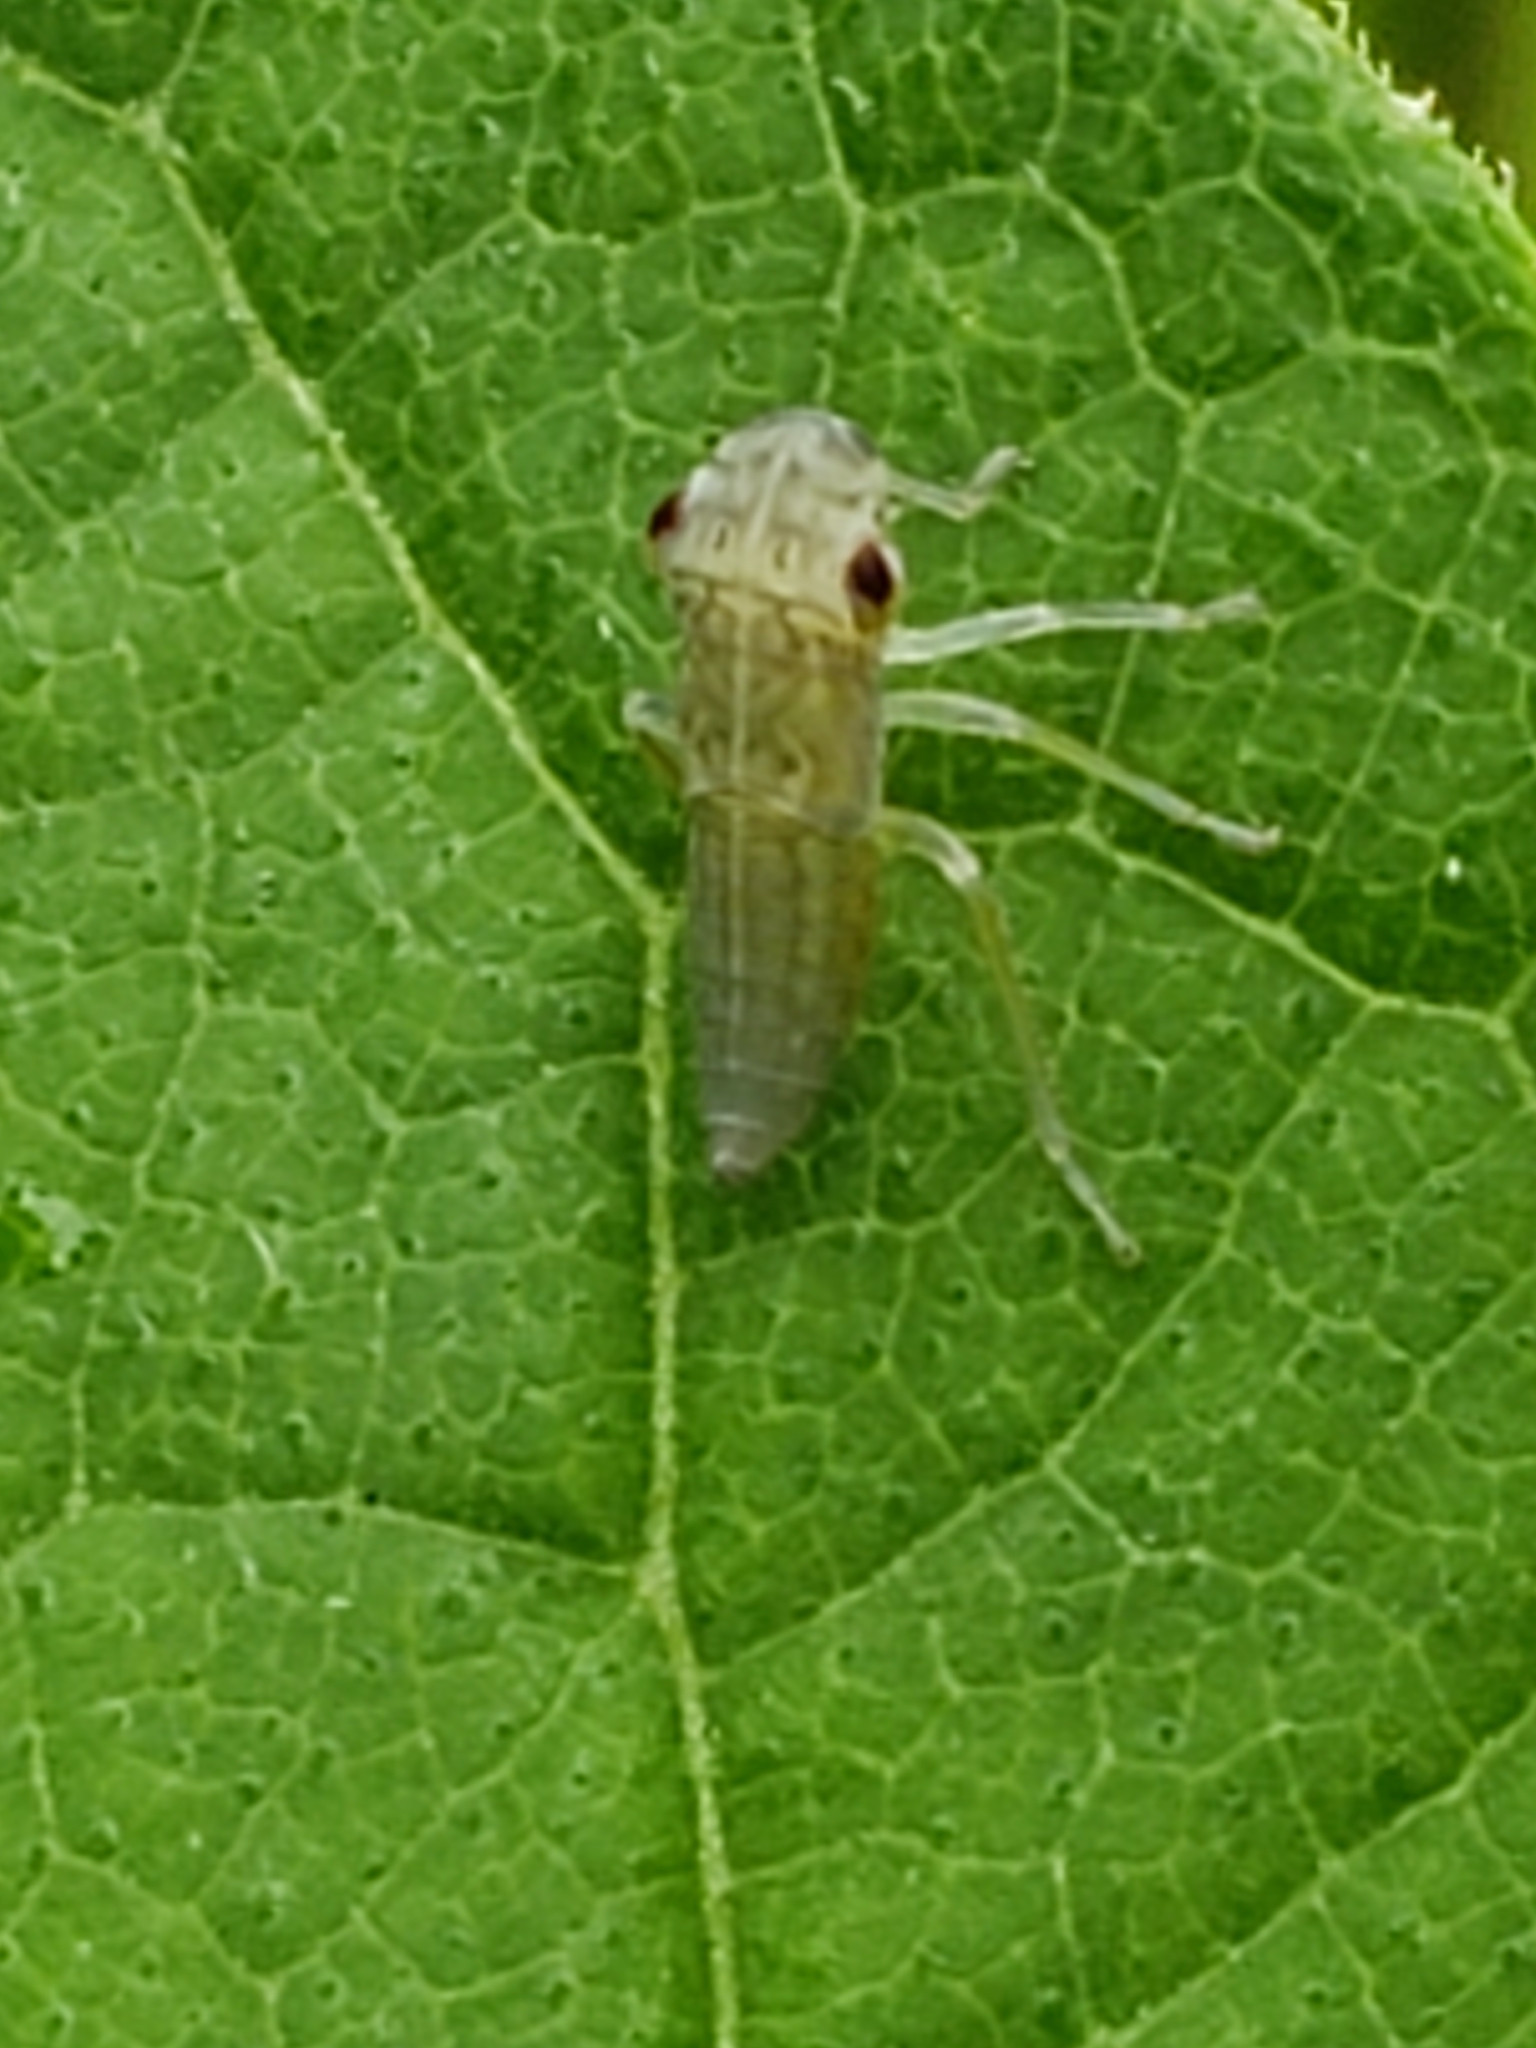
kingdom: Animalia
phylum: Arthropoda
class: Insecta
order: Hemiptera
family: Cicadellidae
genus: Oncometopia
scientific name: Oncometopia orbona
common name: Broad-headed sharpshooter
